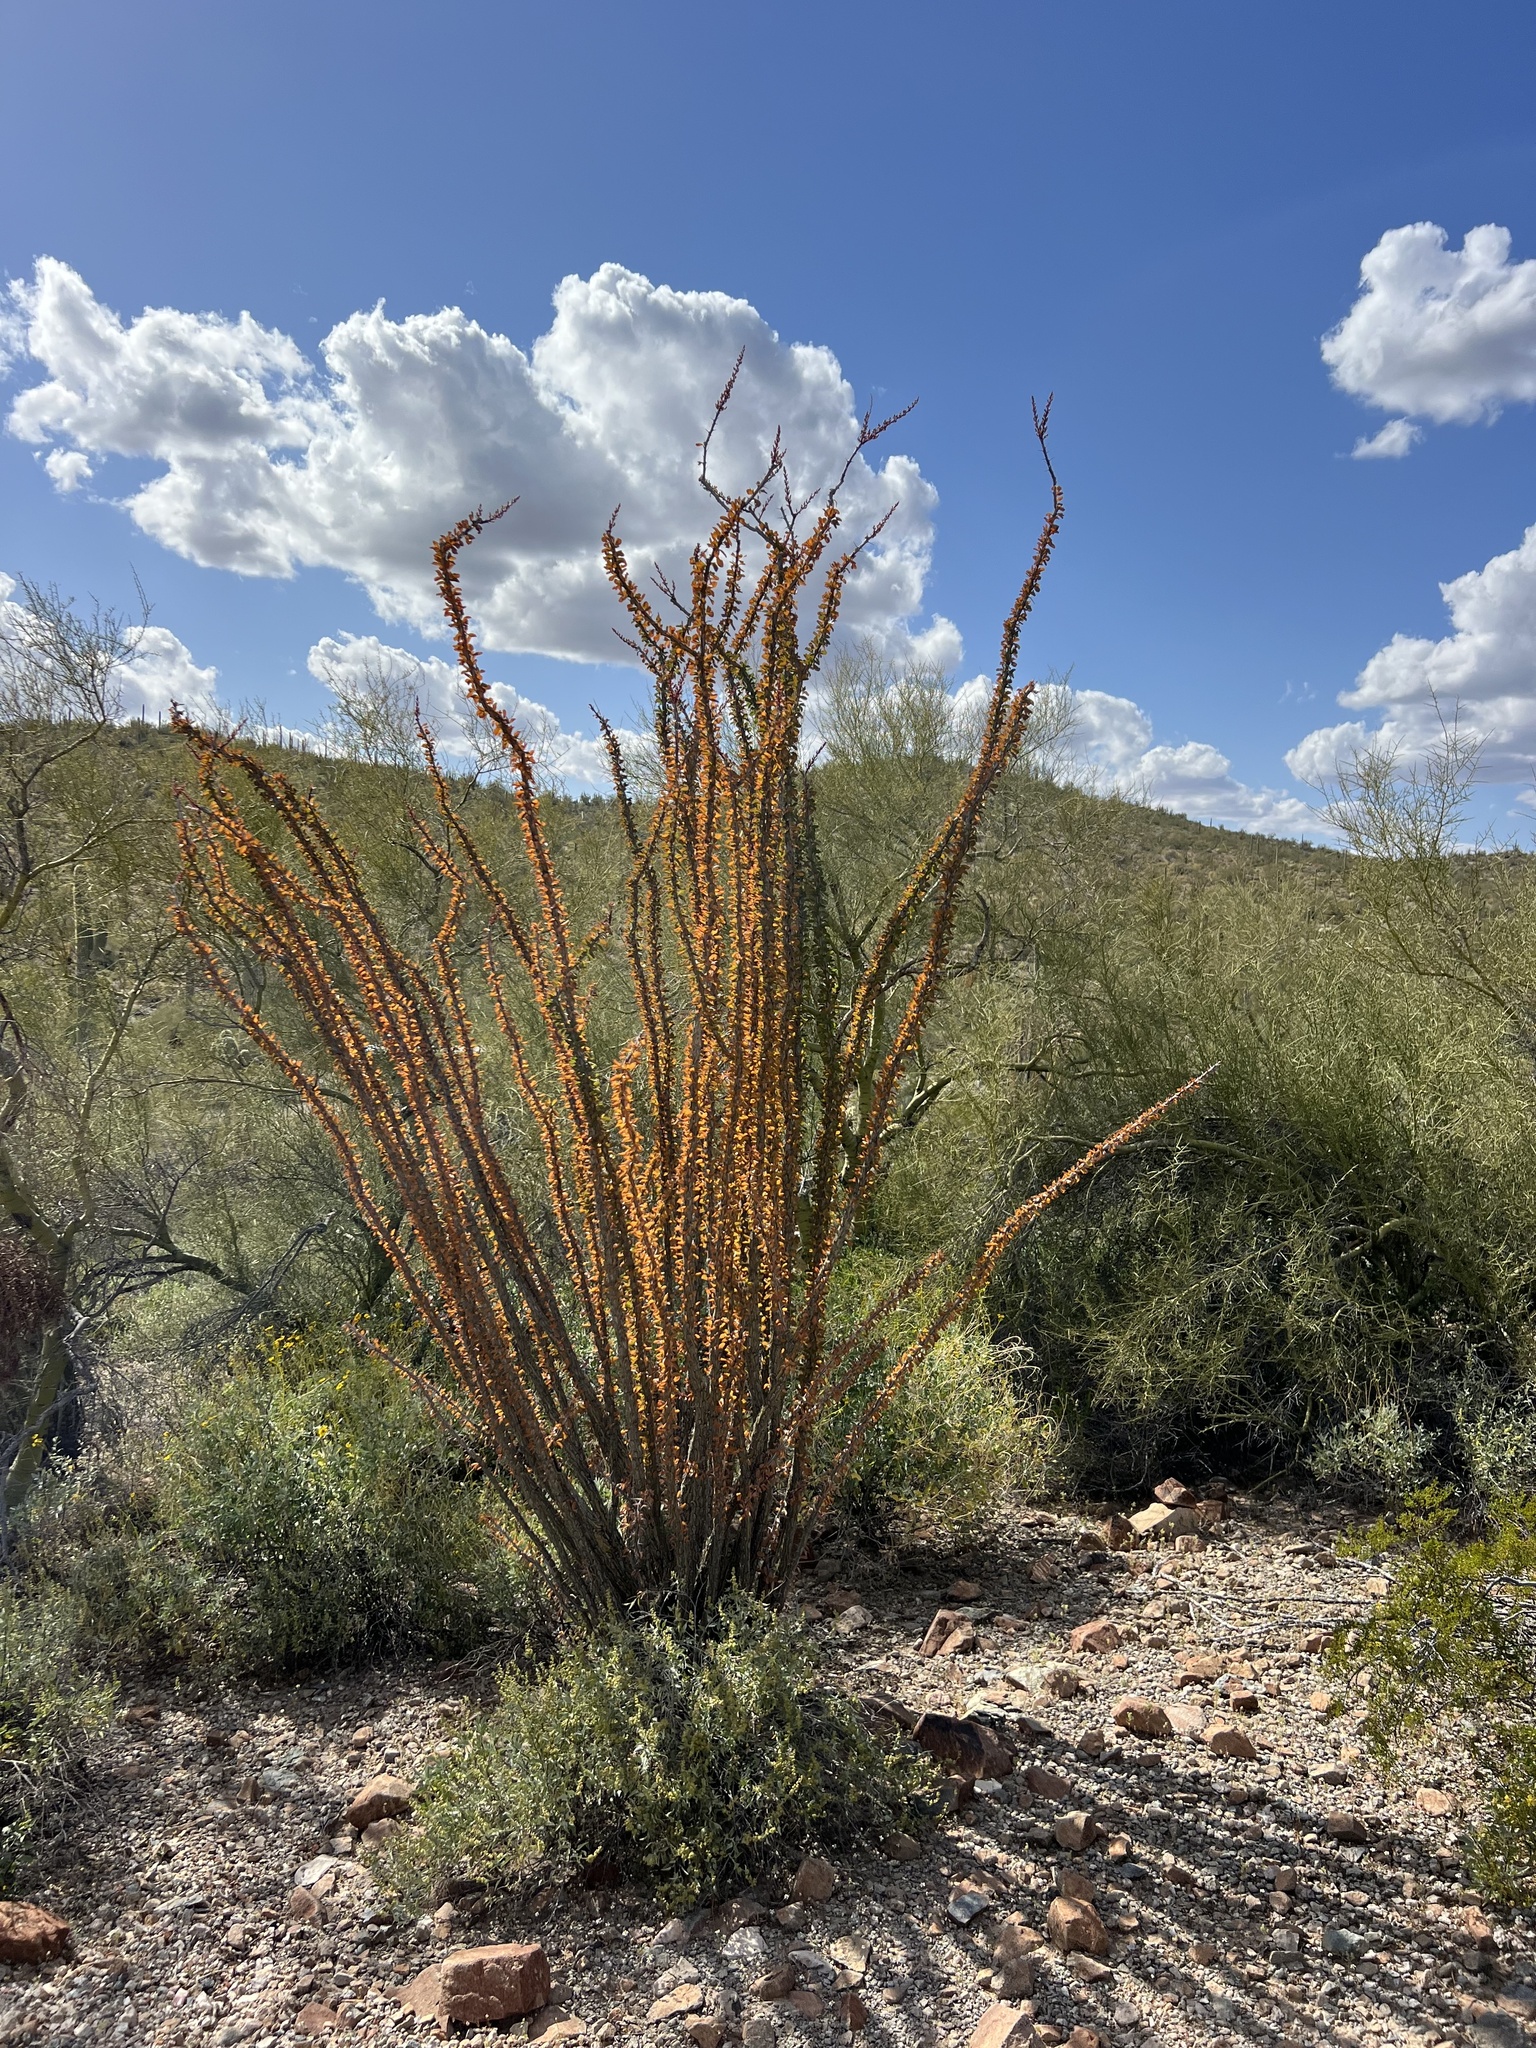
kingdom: Plantae
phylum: Tracheophyta
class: Magnoliopsida
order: Ericales
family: Fouquieriaceae
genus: Fouquieria
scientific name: Fouquieria splendens
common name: Vine-cactus
